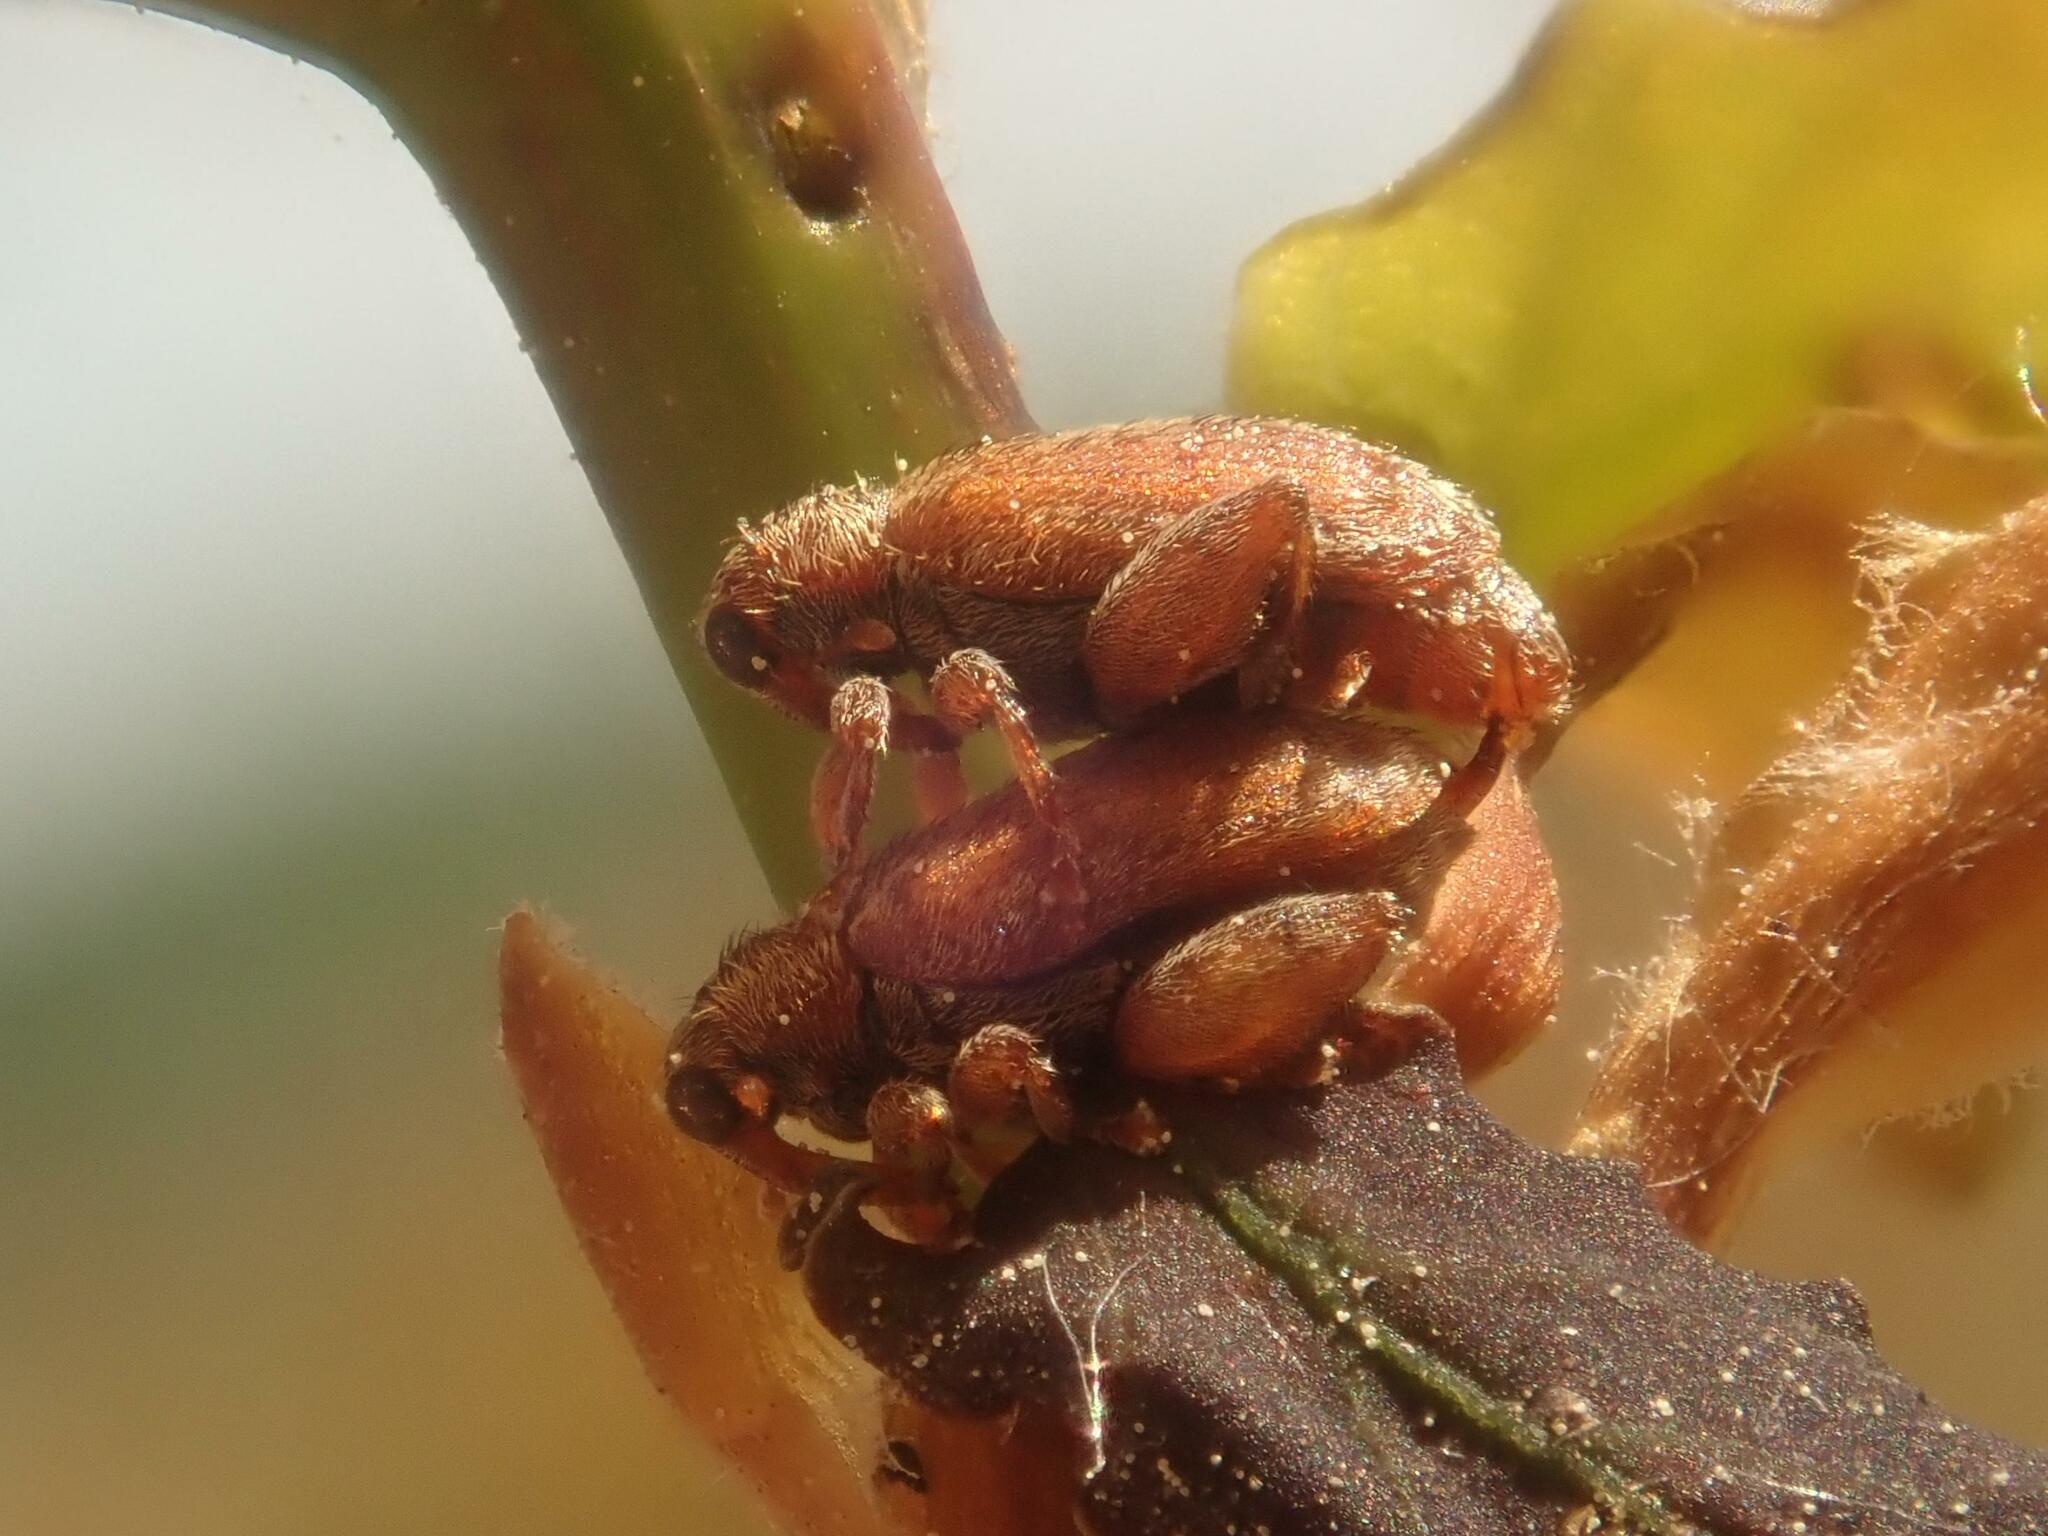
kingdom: Animalia
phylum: Arthropoda
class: Insecta
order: Coleoptera
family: Curculionidae
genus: Orchestes
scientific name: Orchestes quercus
